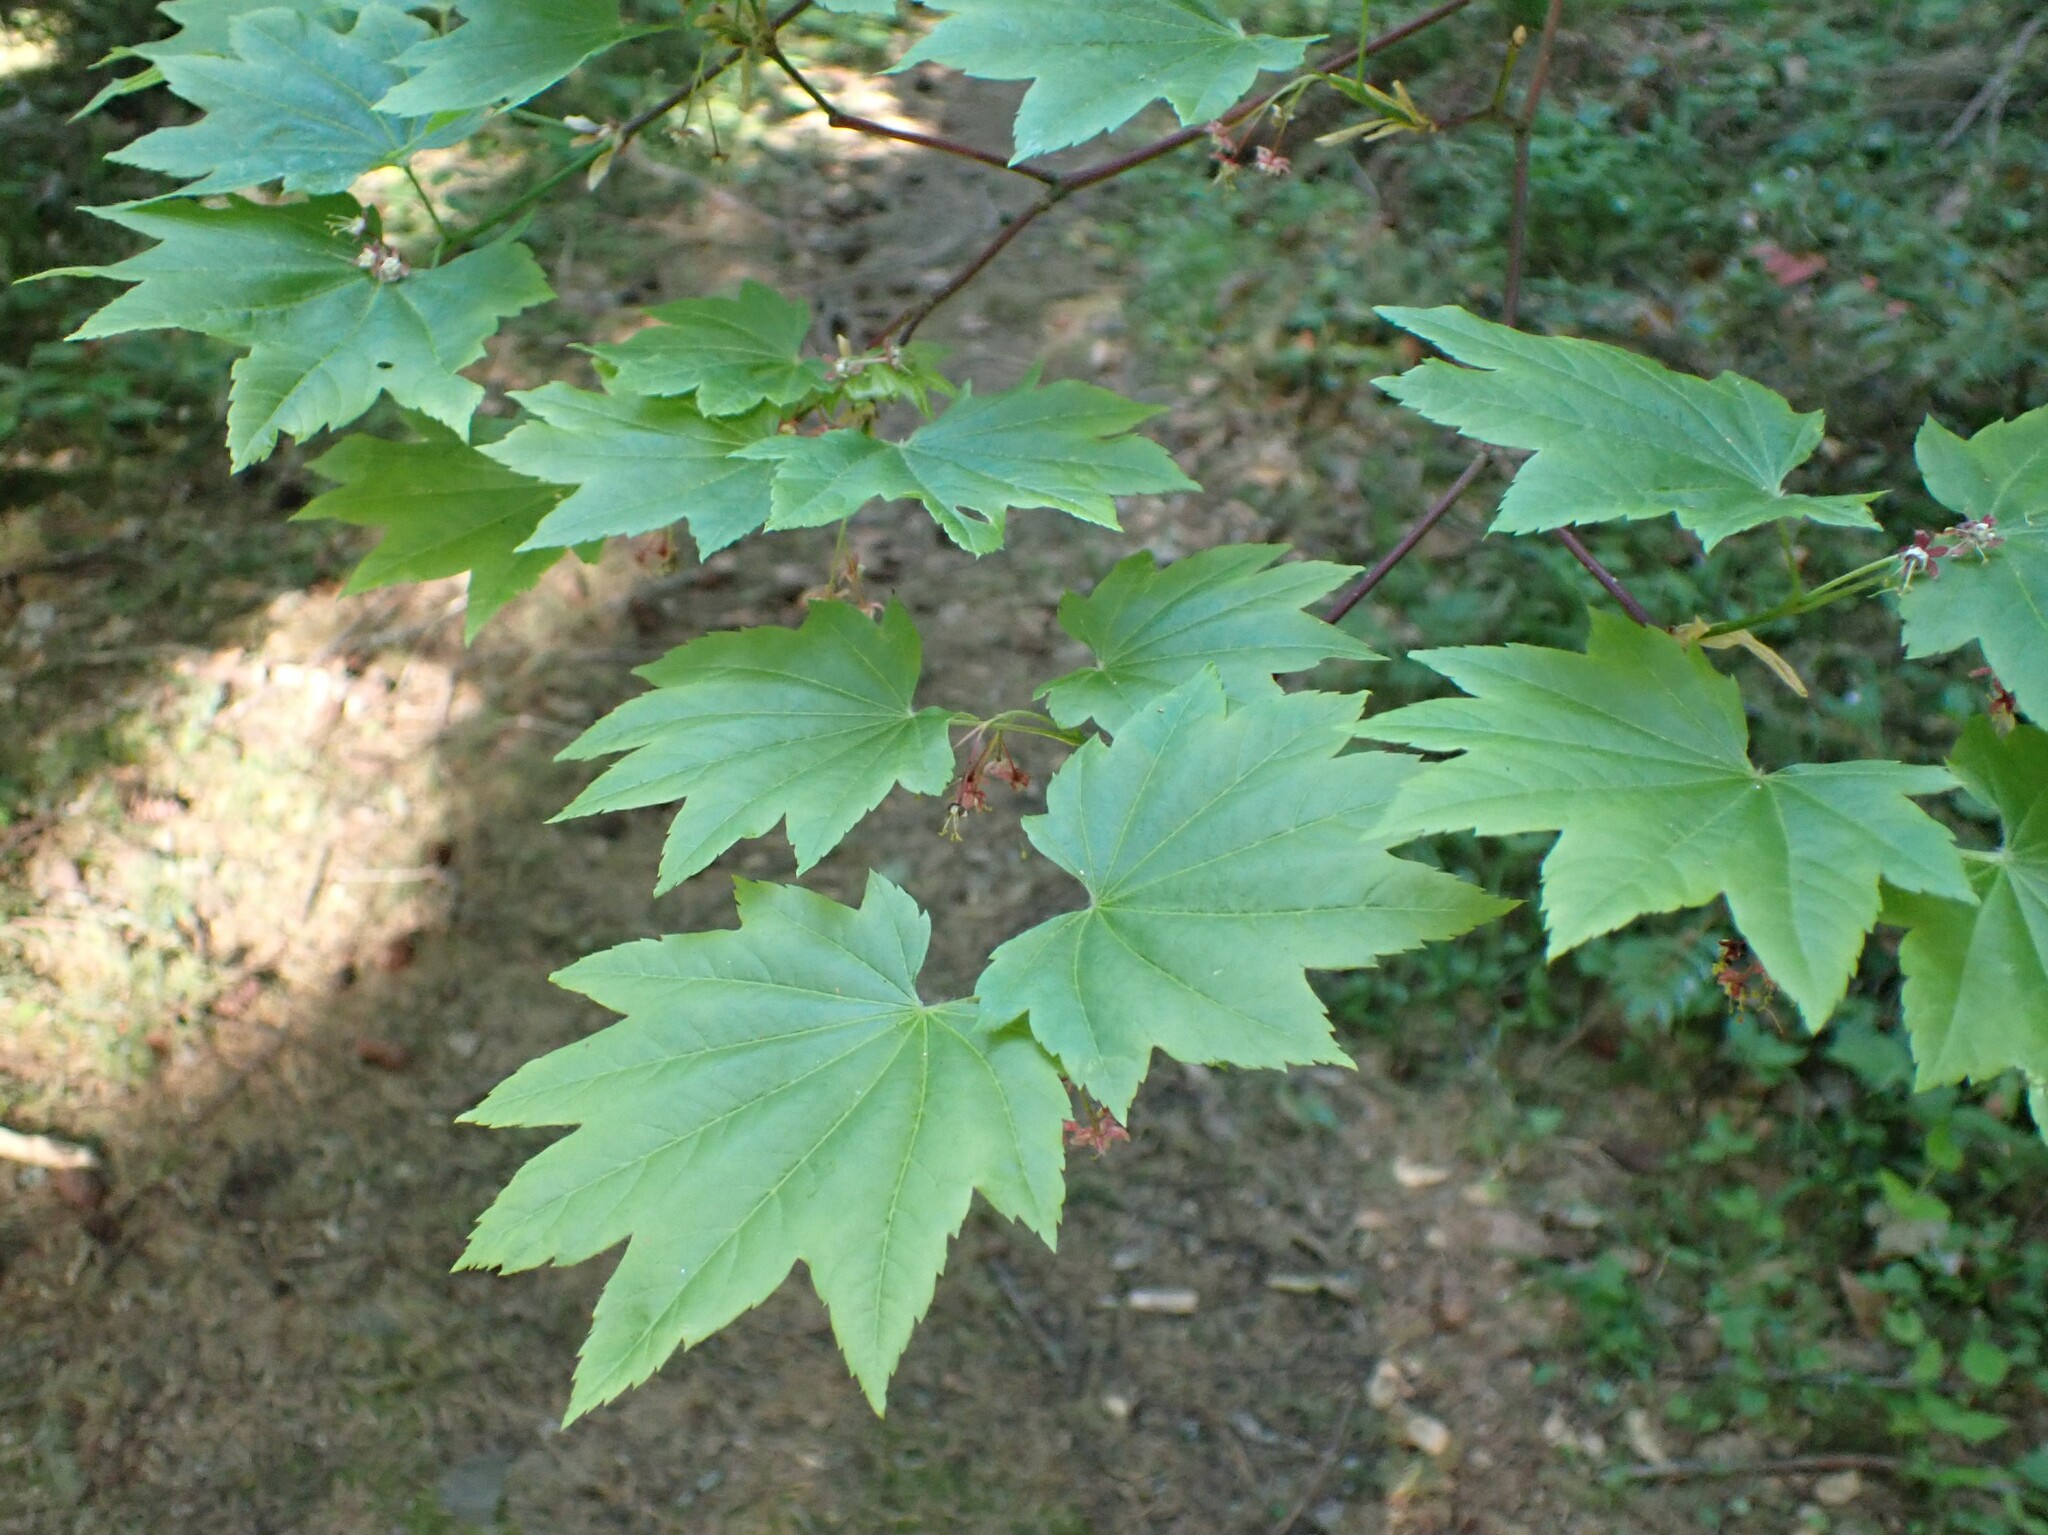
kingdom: Plantae
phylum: Tracheophyta
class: Magnoliopsida
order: Sapindales
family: Sapindaceae
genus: Acer
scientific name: Acer circinatum
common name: Vine maple
